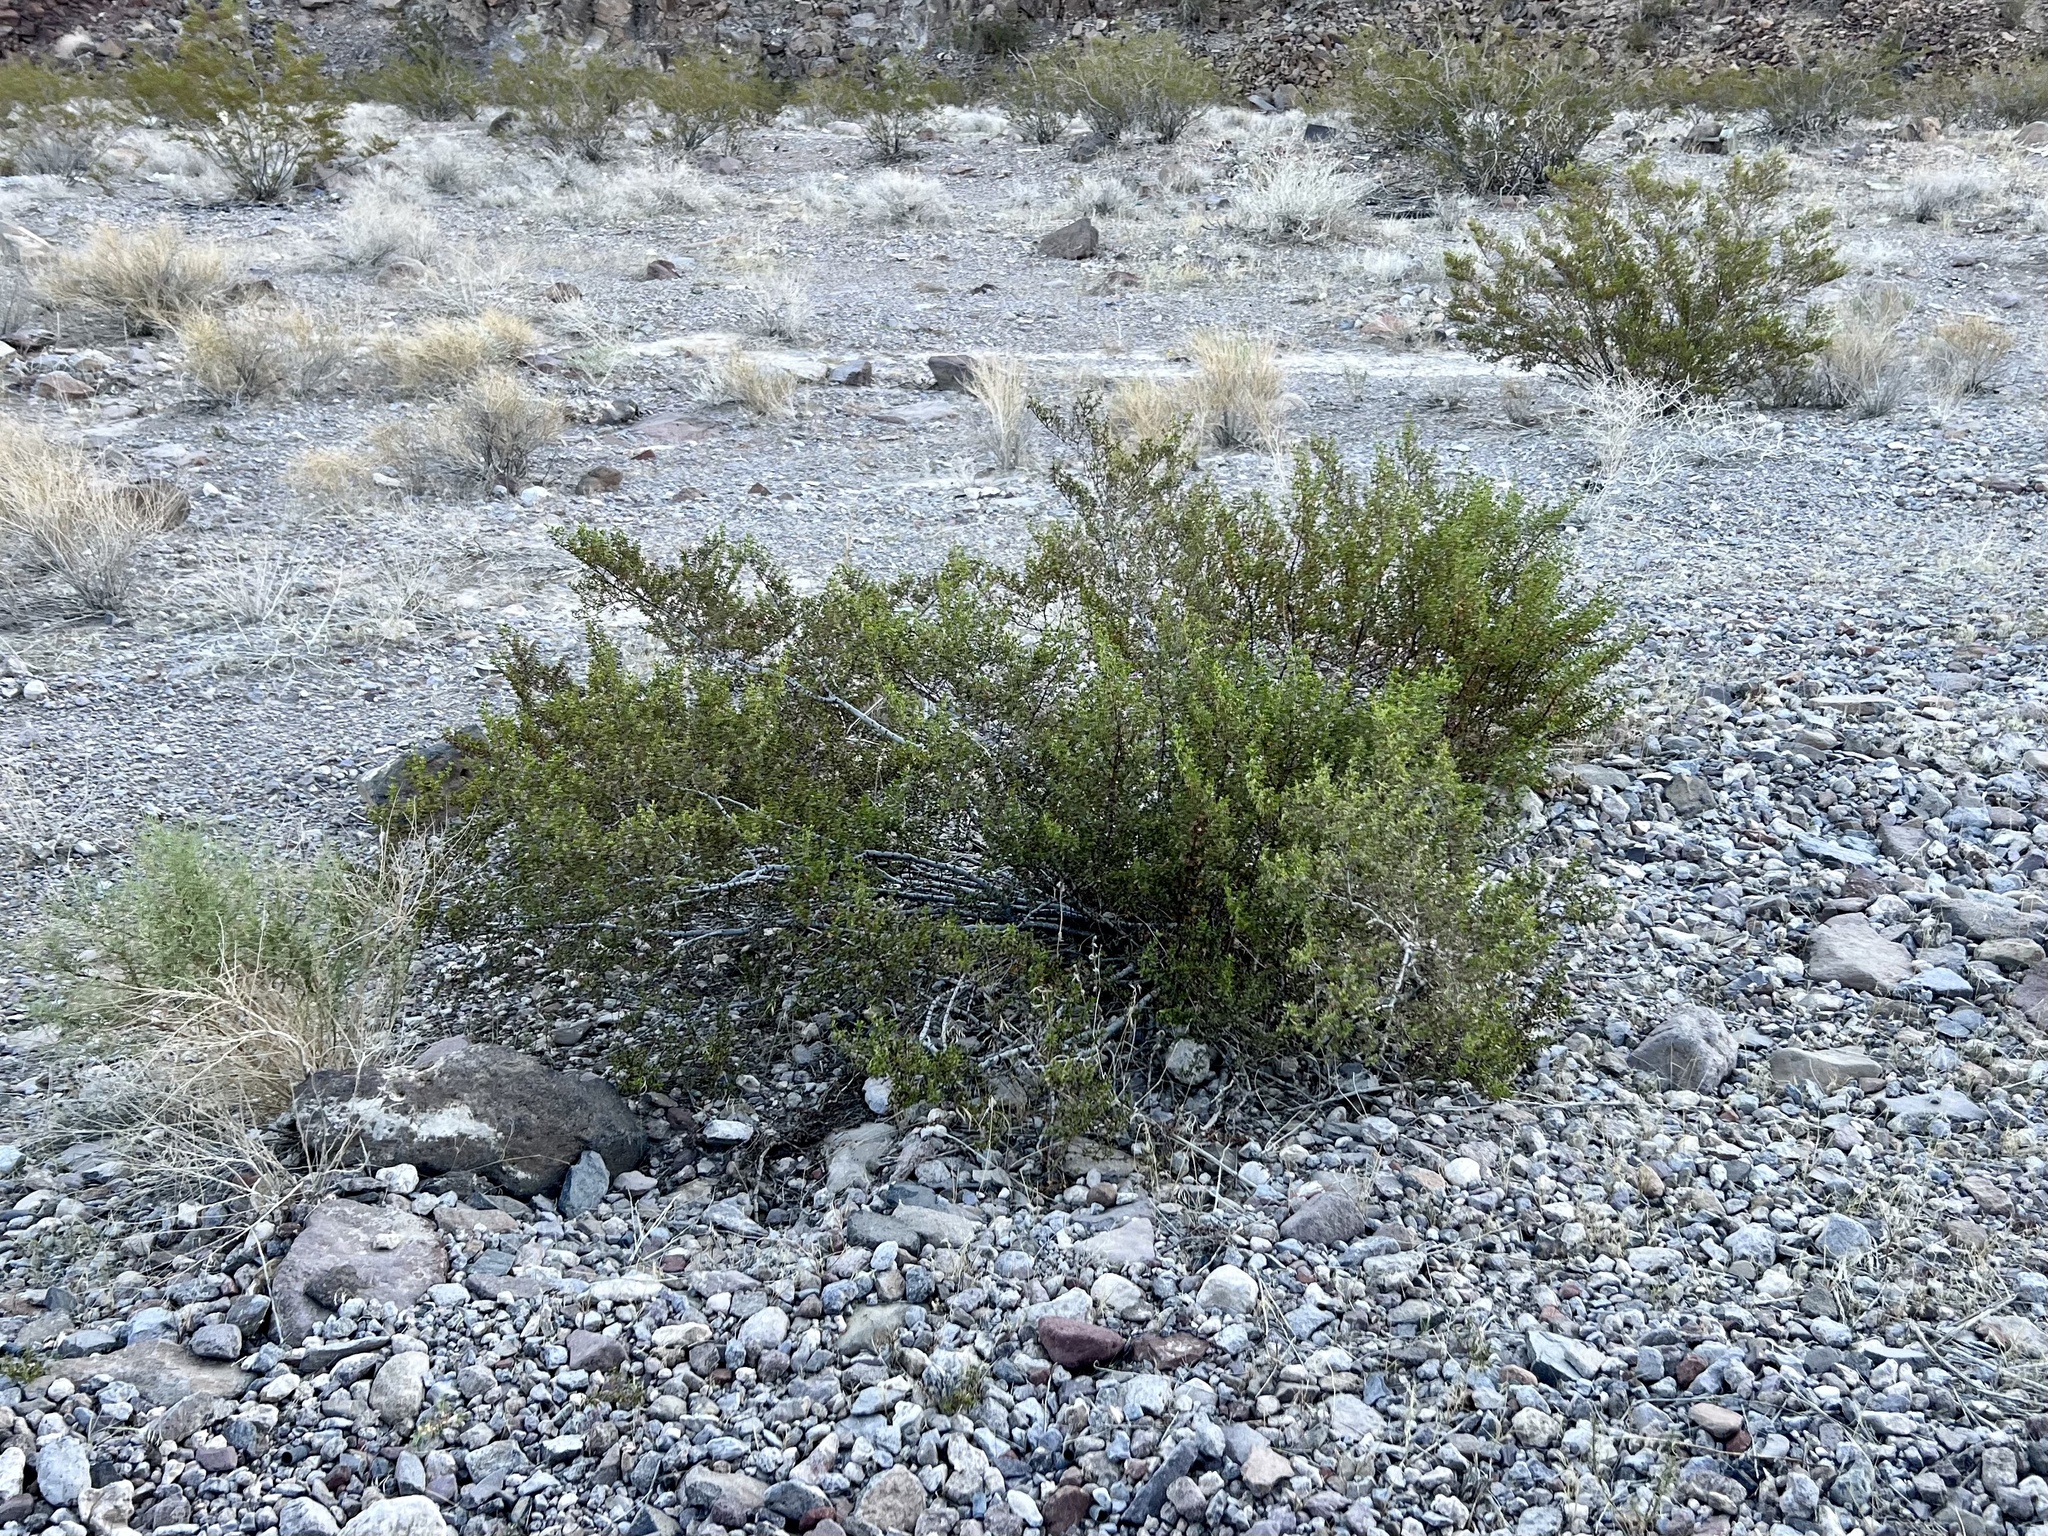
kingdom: Plantae
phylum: Tracheophyta
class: Magnoliopsida
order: Zygophyllales
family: Zygophyllaceae
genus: Larrea
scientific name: Larrea tridentata
